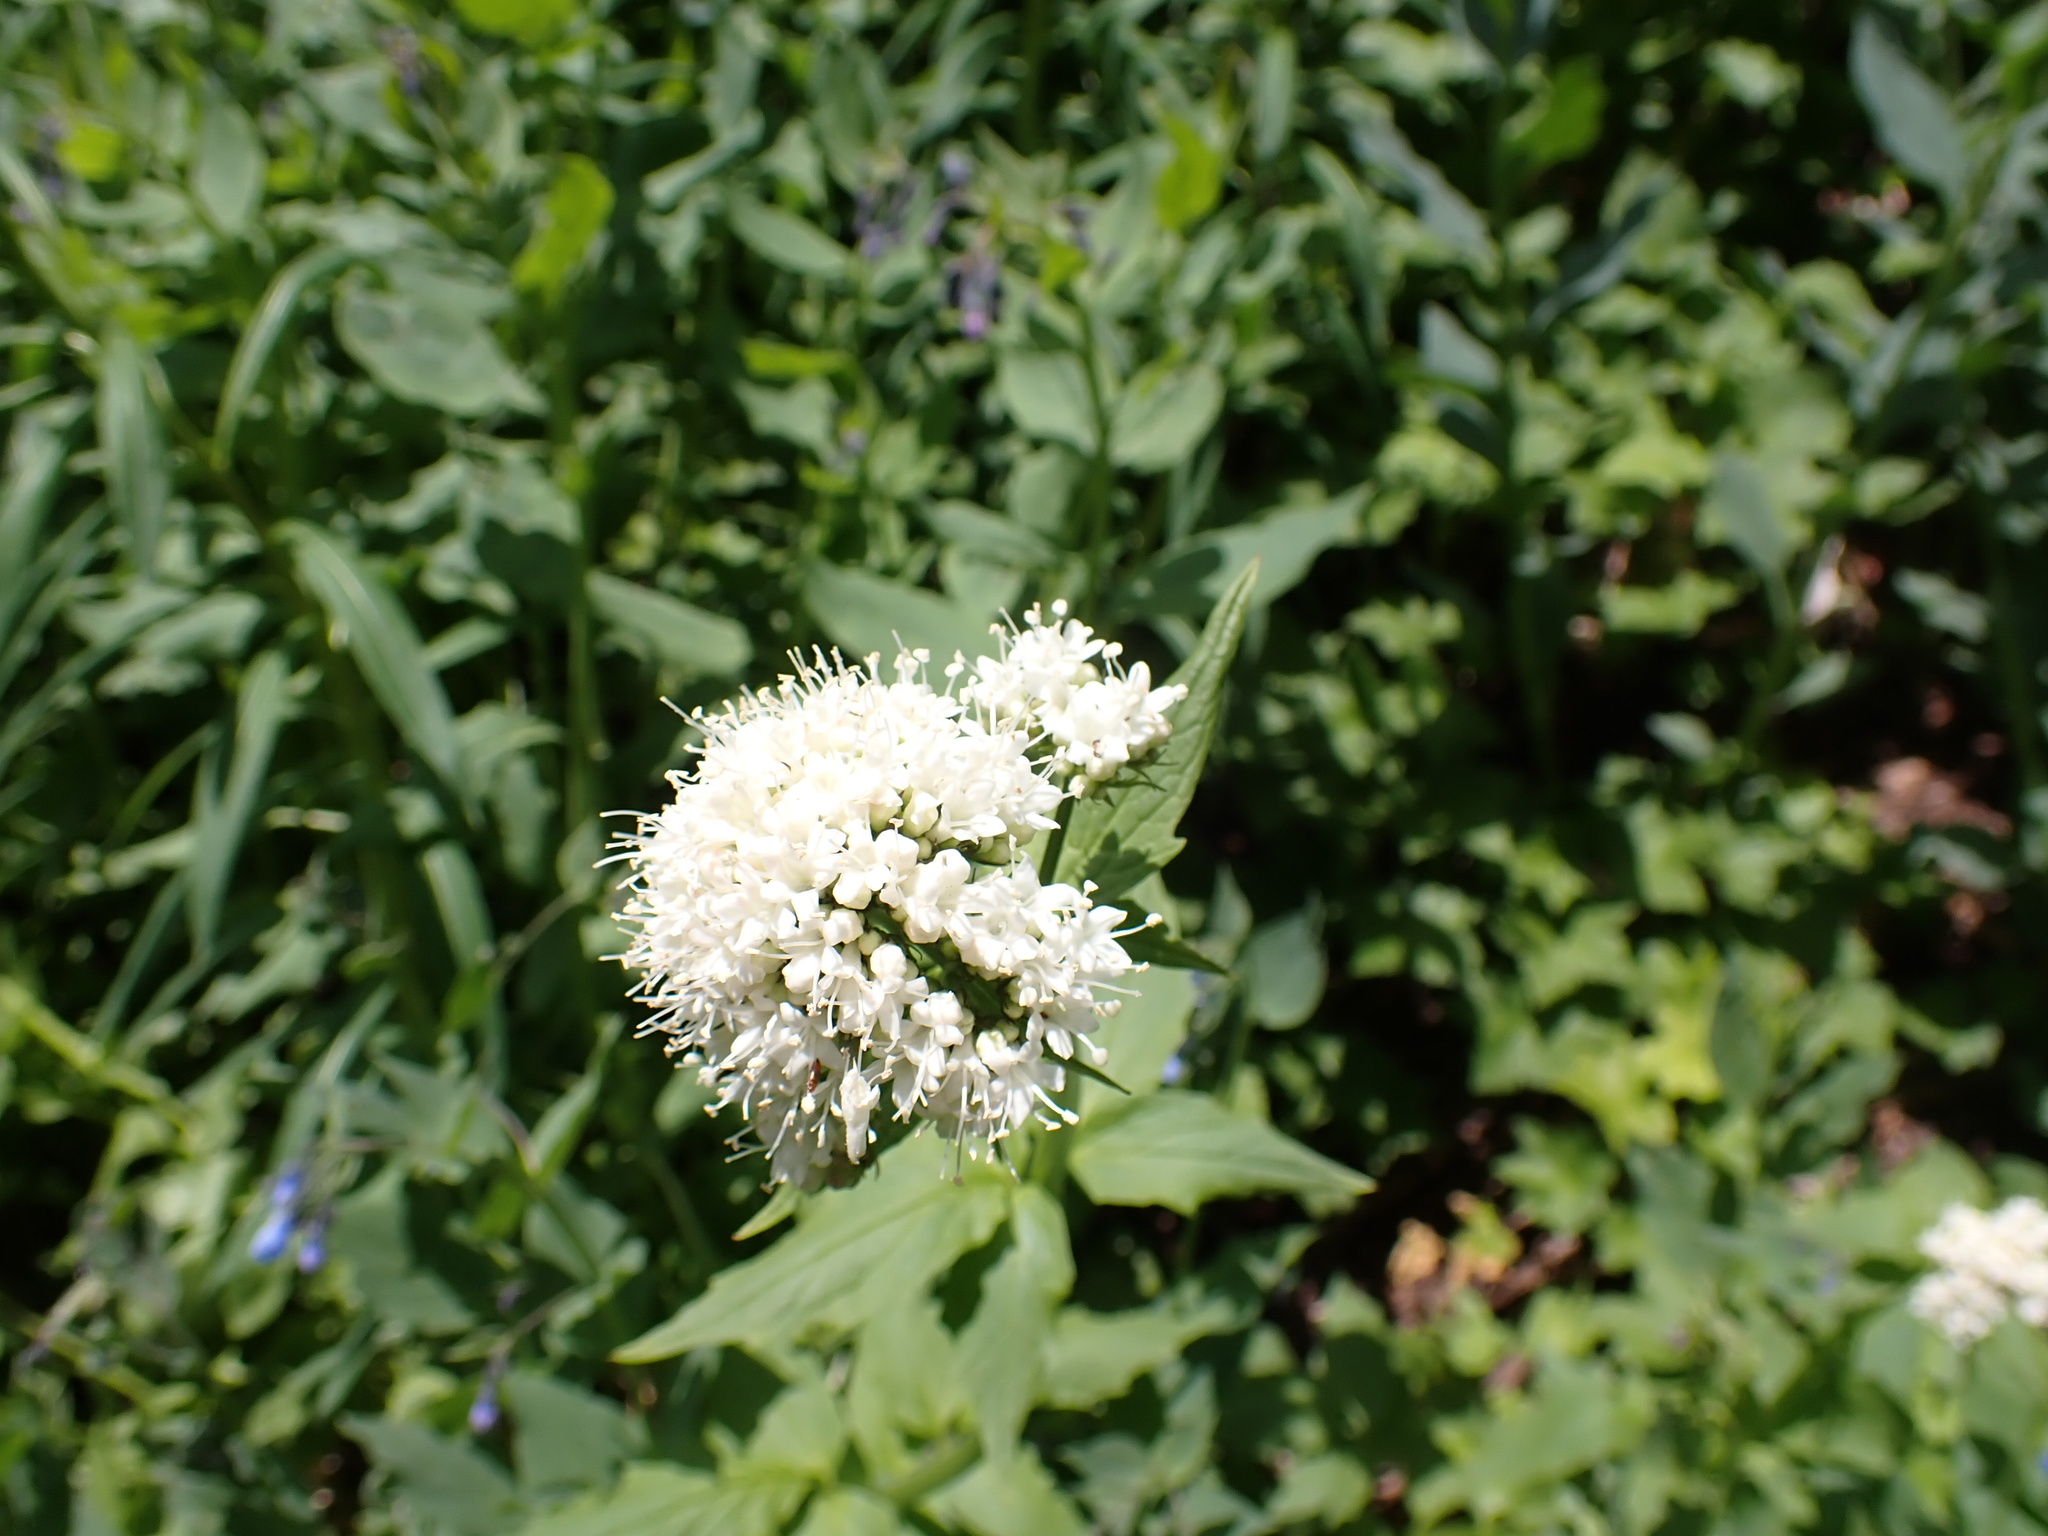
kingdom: Plantae
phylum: Tracheophyta
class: Magnoliopsida
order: Dipsacales
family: Caprifoliaceae
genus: Valeriana
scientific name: Valeriana sitchensis
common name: Pacific valerian
